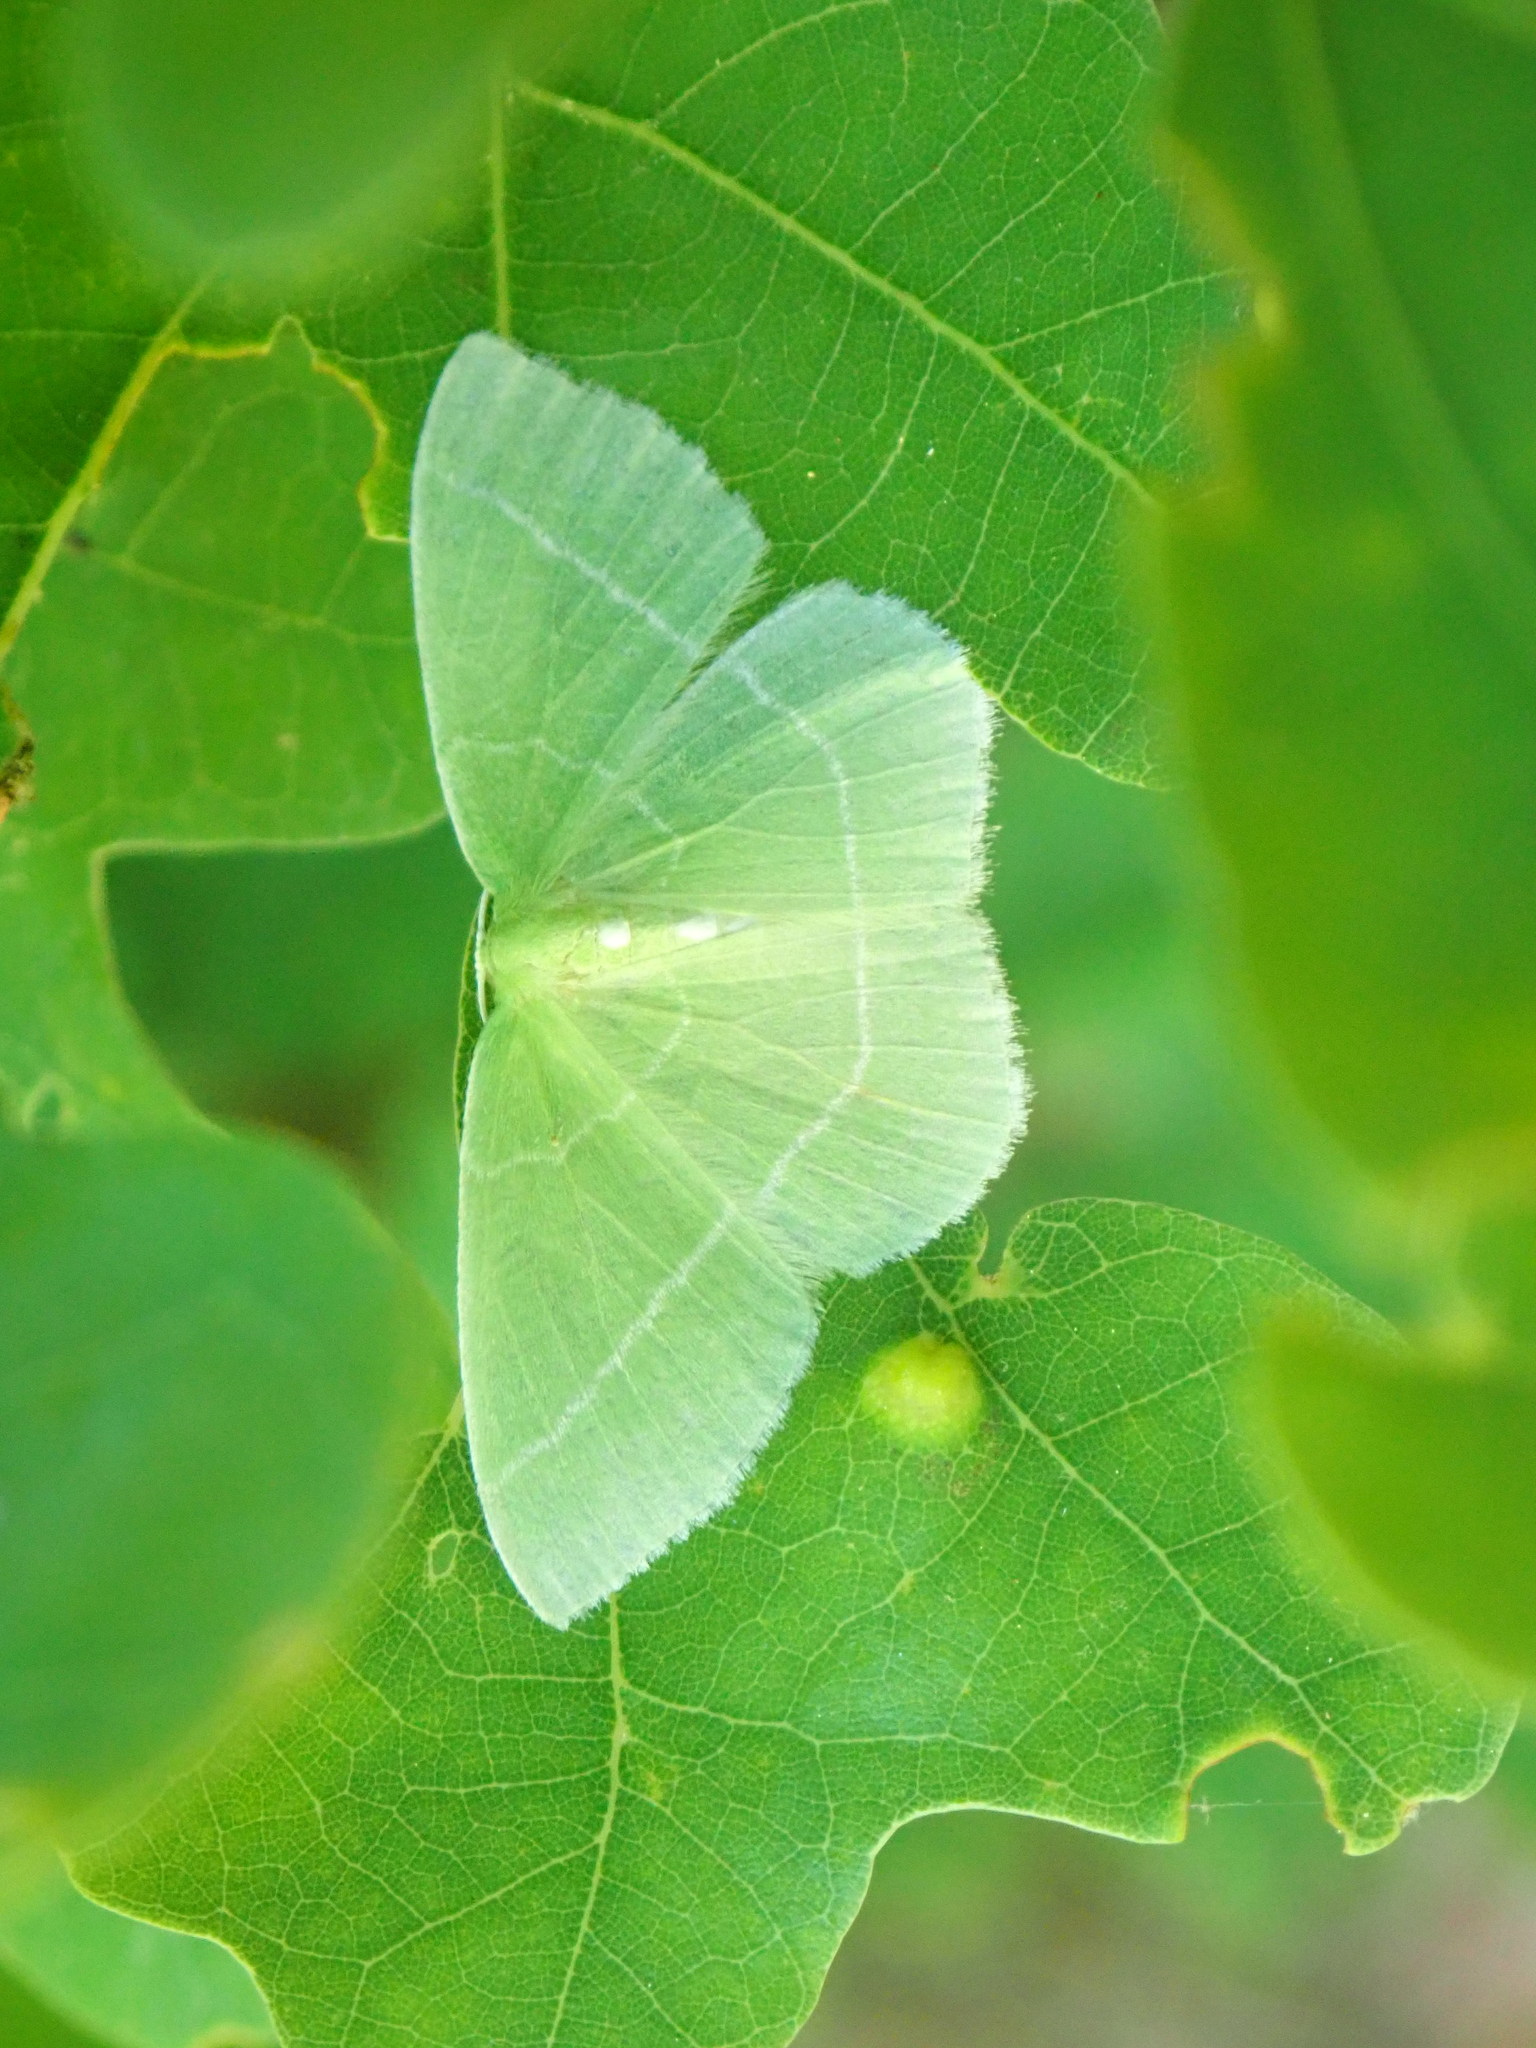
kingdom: Animalia
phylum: Arthropoda
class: Insecta
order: Lepidoptera
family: Geometridae
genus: Nemoria
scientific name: Nemoria mimosaria
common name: White-fringed emerald
